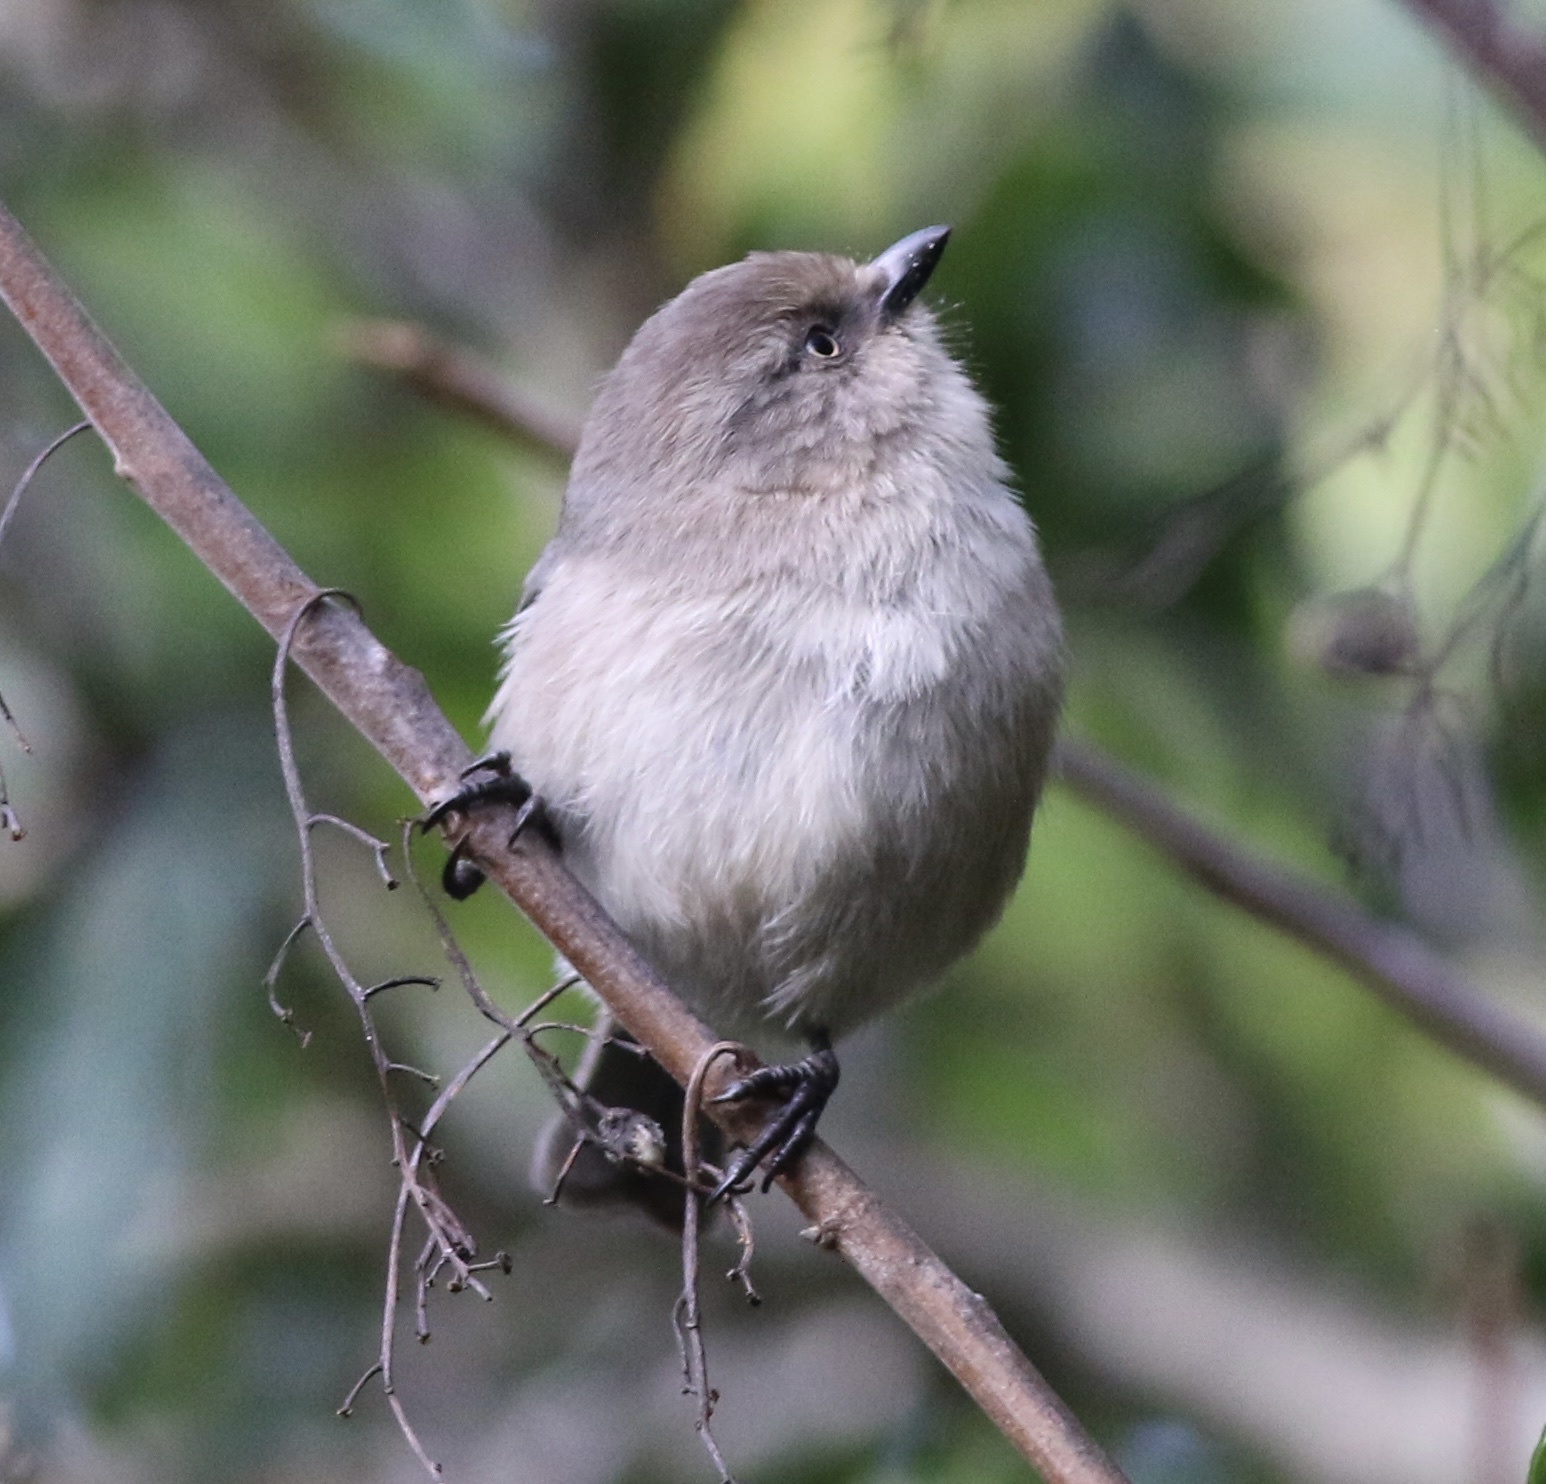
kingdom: Animalia
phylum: Chordata
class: Aves
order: Passeriformes
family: Aegithalidae
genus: Psaltriparus
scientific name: Psaltriparus minimus
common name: American bushtit
